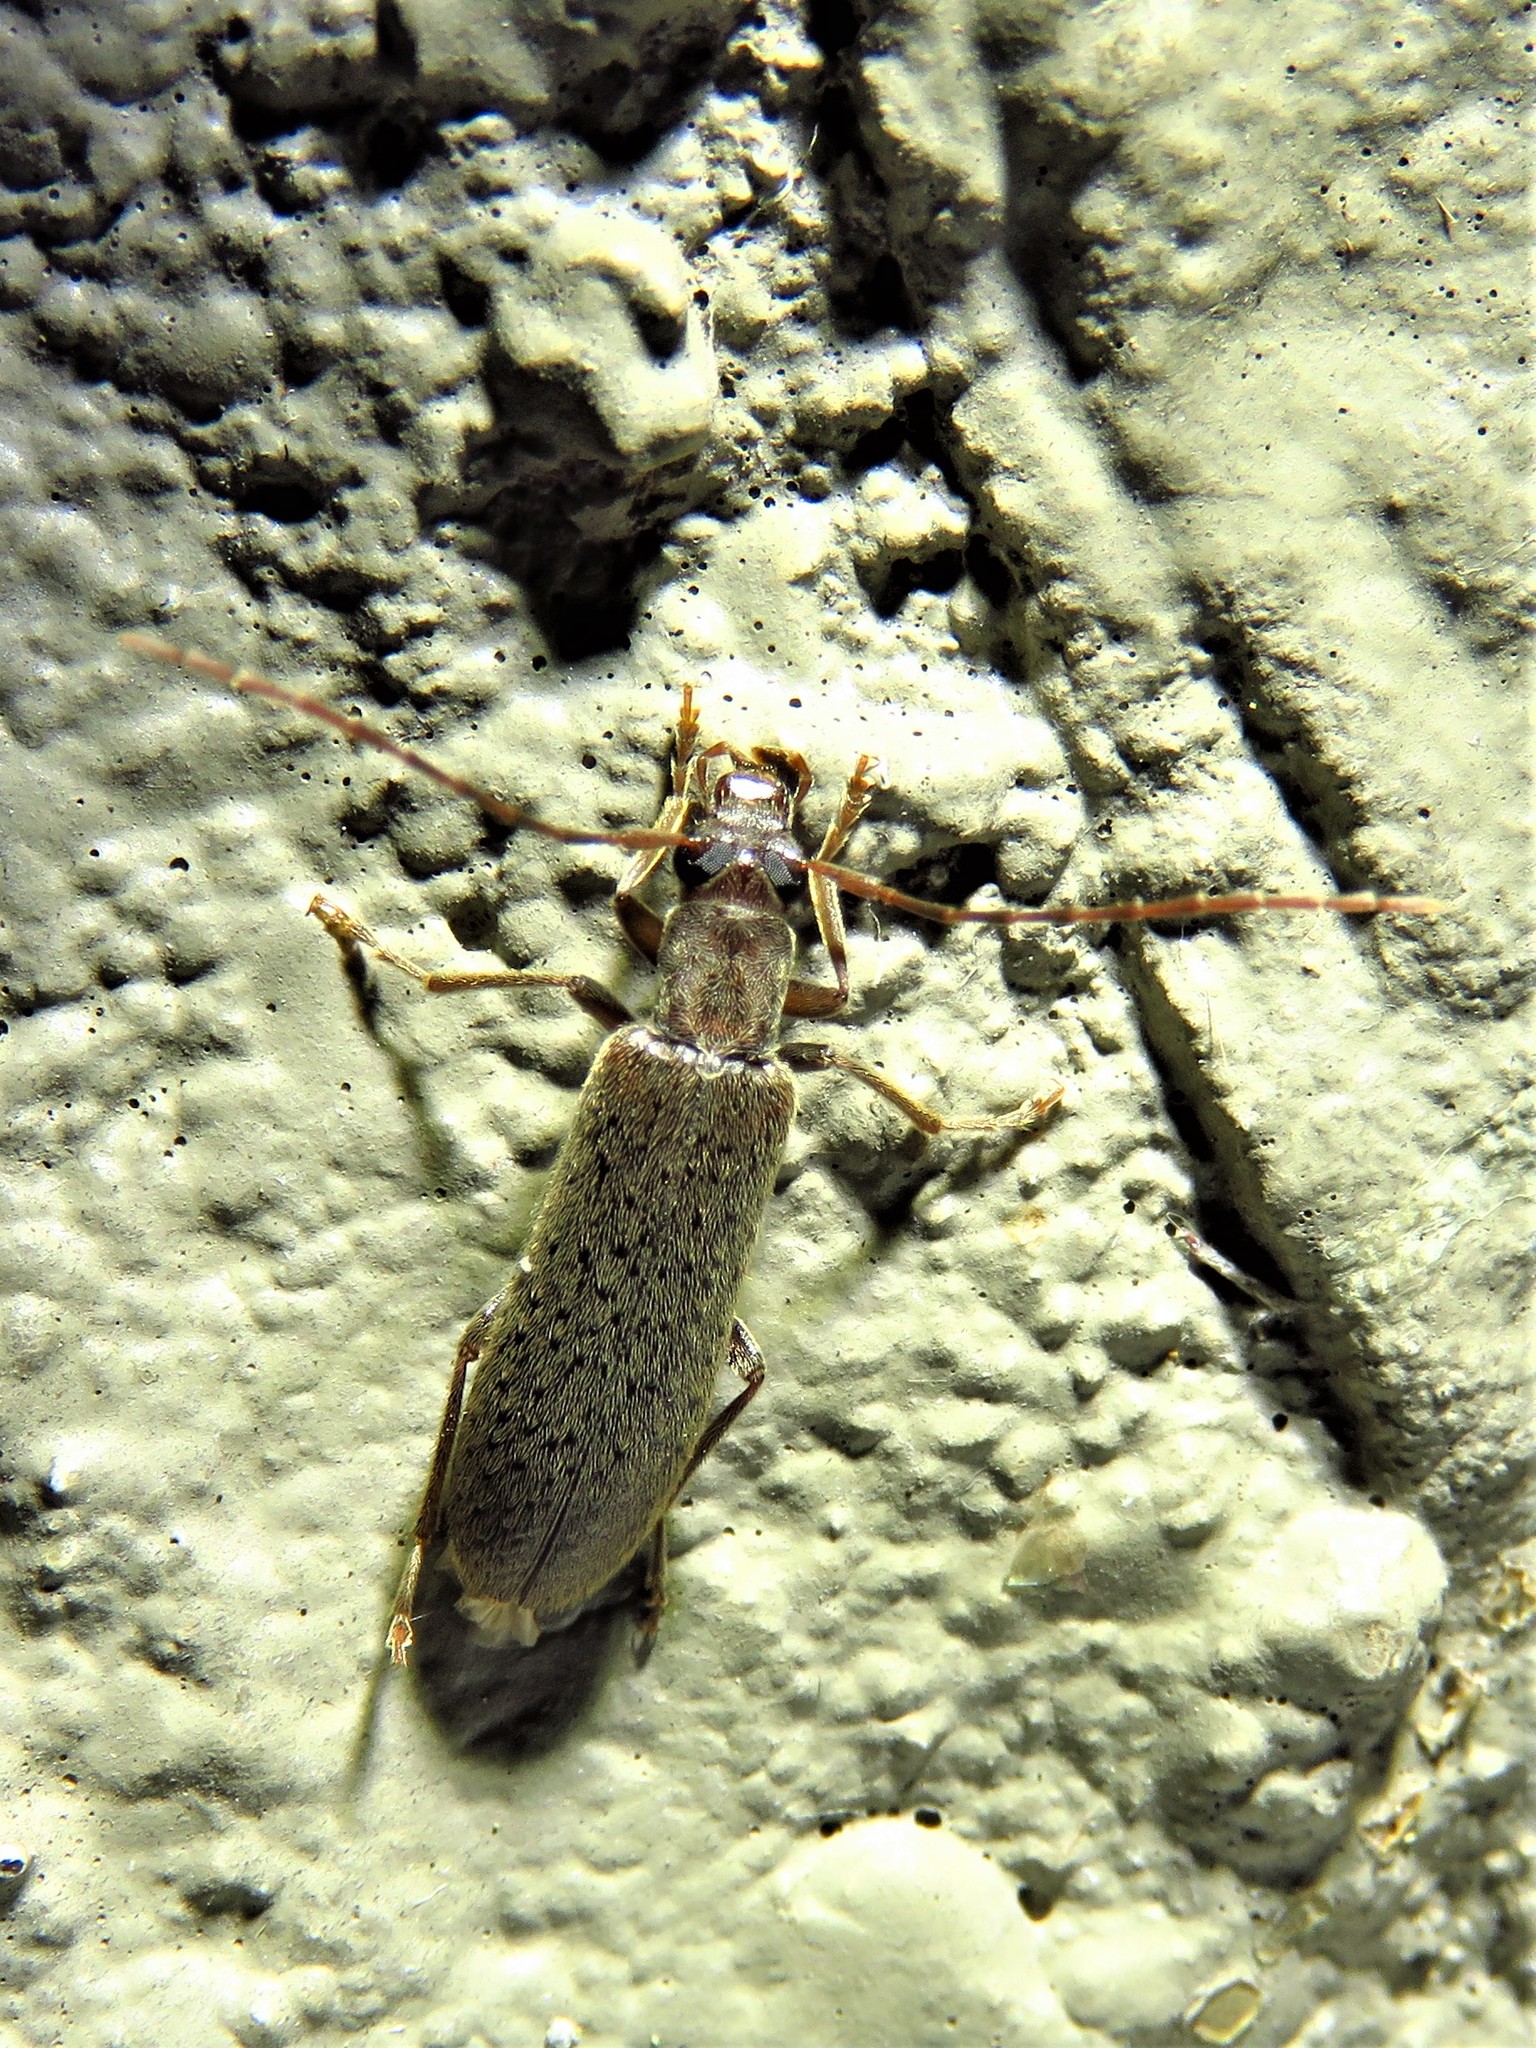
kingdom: Animalia
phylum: Arthropoda
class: Insecta
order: Coleoptera
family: Oedemeridae
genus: Sparedrus
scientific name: Sparedrus aspersus
